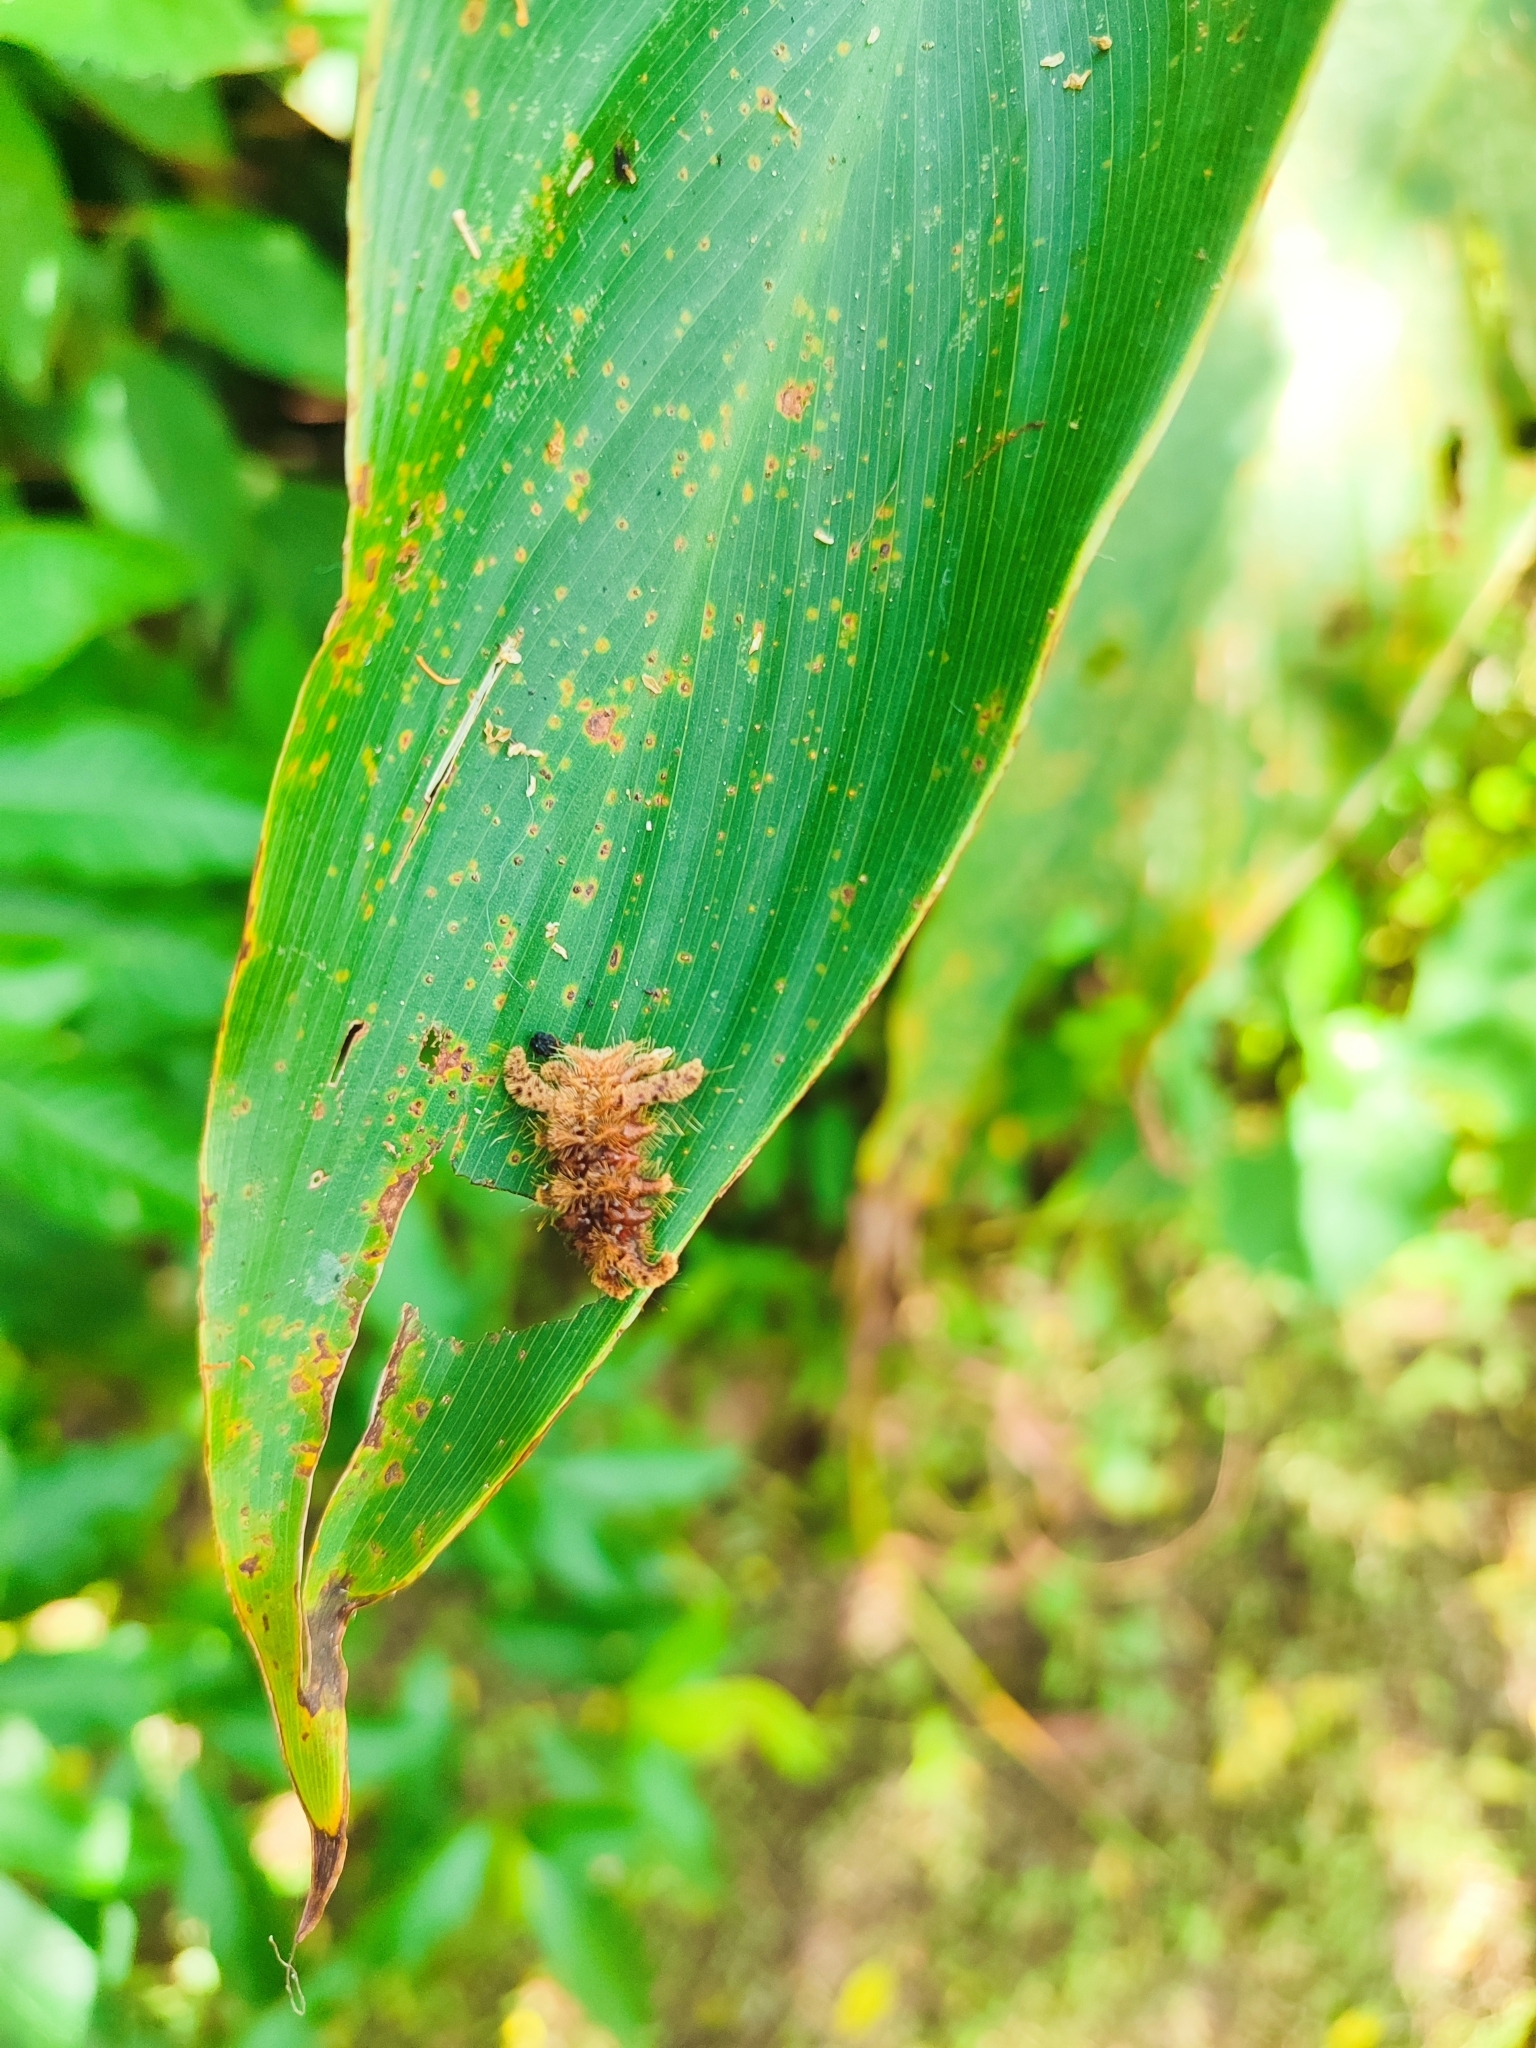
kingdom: Animalia
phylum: Arthropoda
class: Insecta
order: Lepidoptera
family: Limacodidae
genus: Phobetron
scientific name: Phobetron hipparchia
